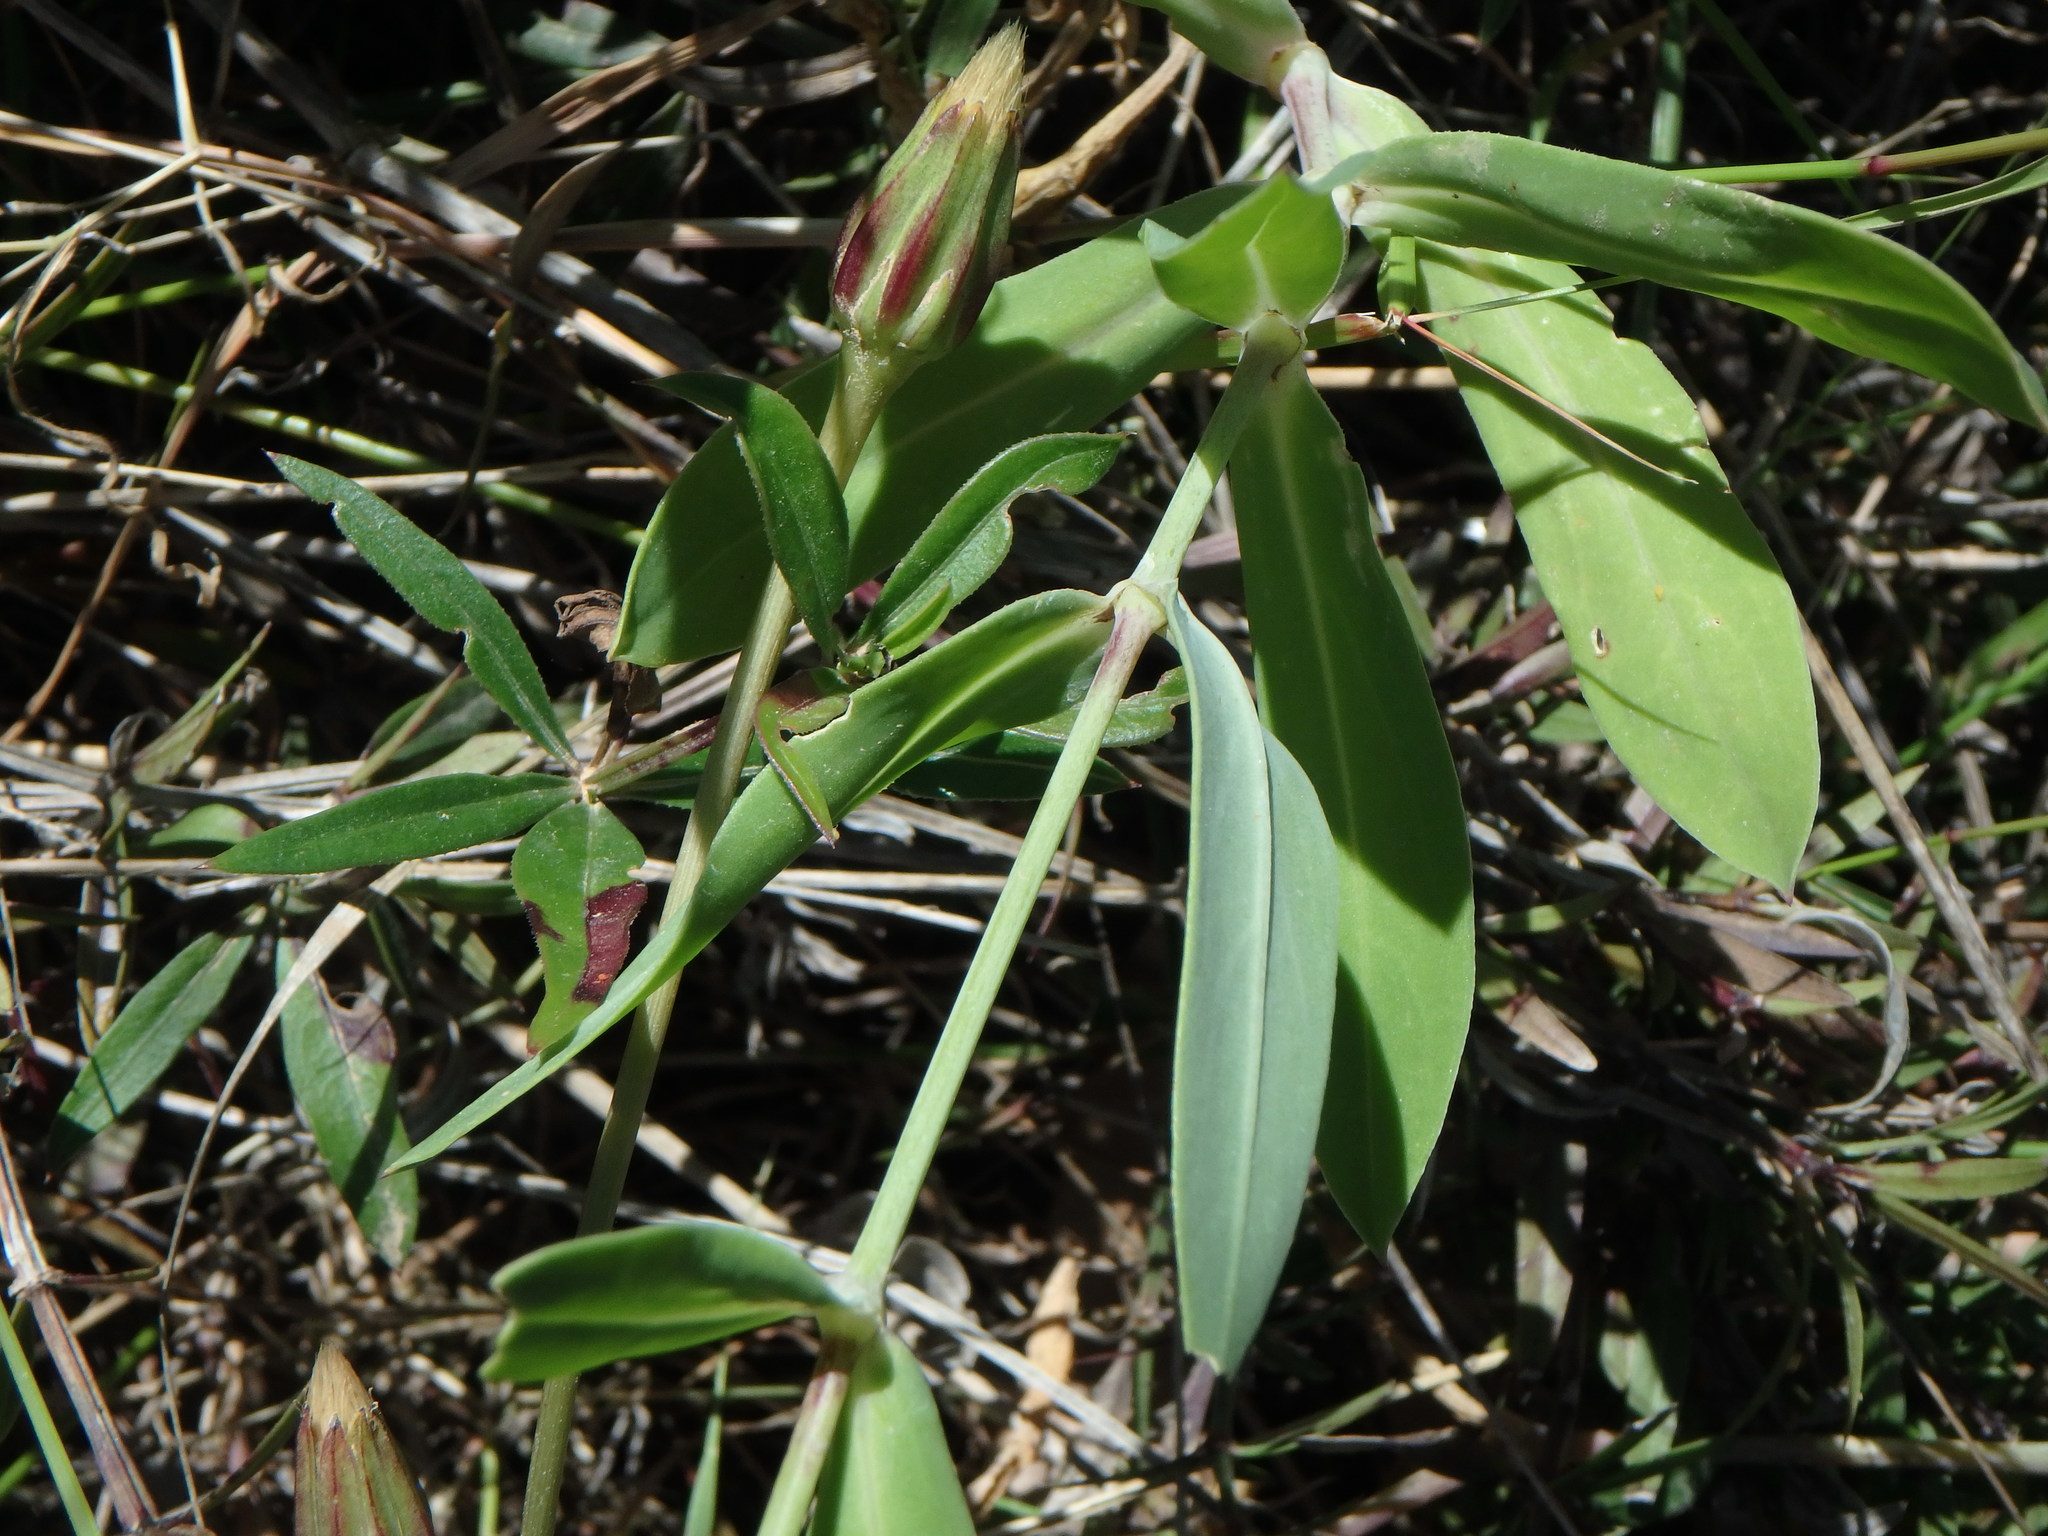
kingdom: Plantae
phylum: Tracheophyta
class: Magnoliopsida
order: Caryophyllales
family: Caryophyllaceae
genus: Silene
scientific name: Silene vulgaris
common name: Bladder campion
